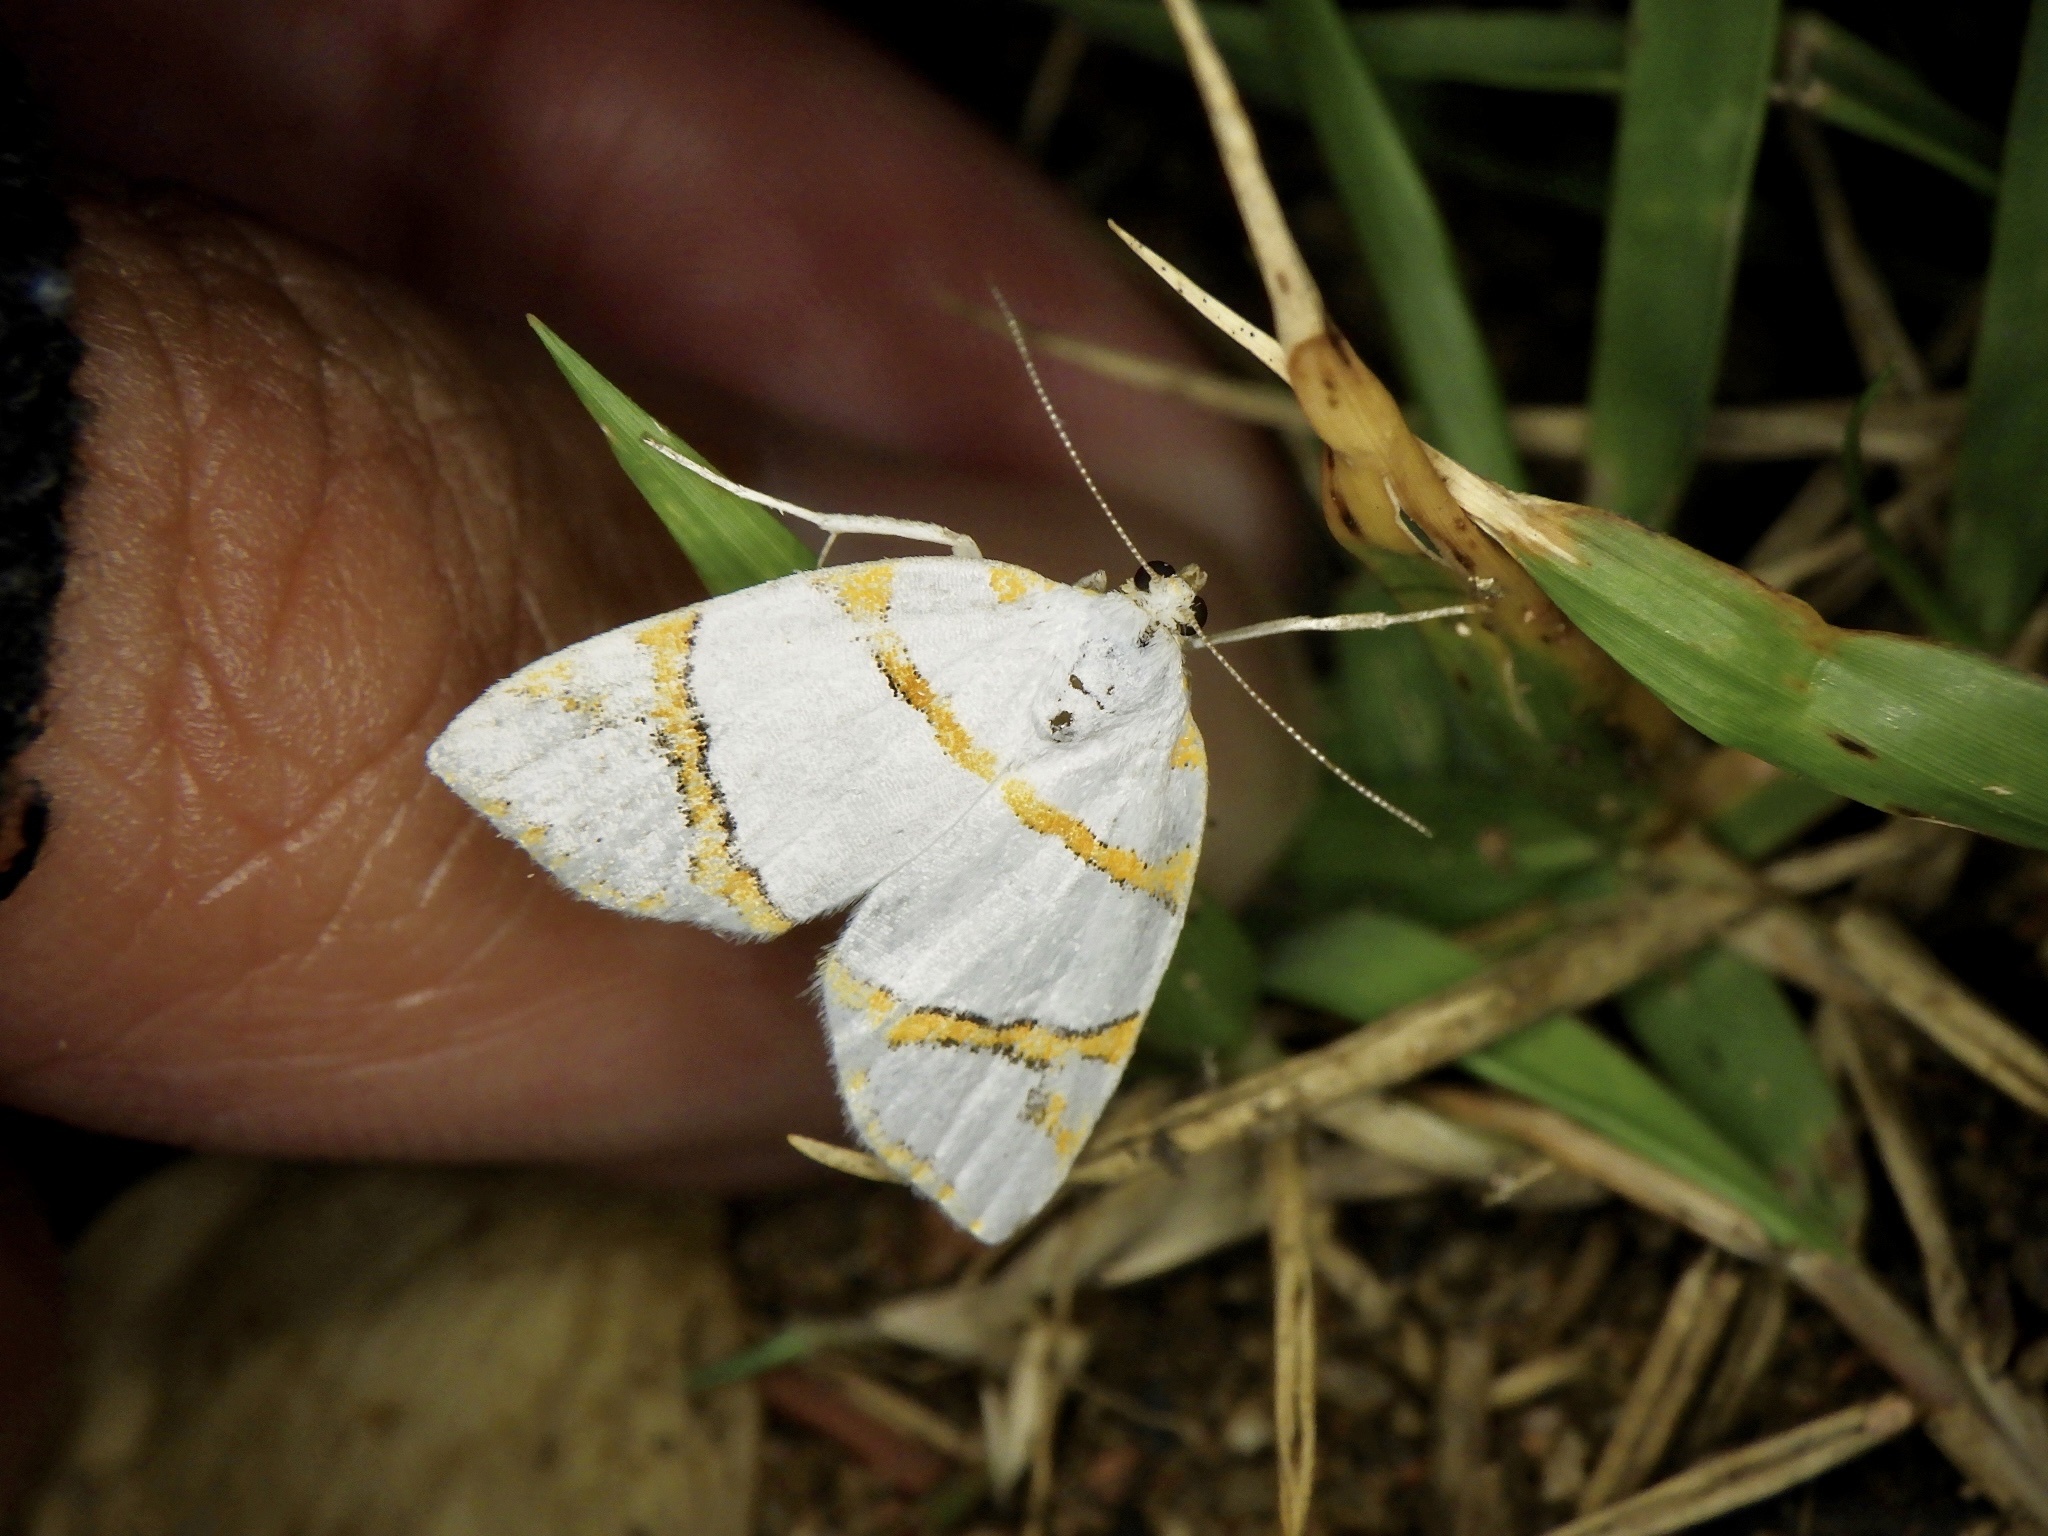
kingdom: Animalia
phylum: Arthropoda
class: Insecta
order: Lepidoptera
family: Nolidae
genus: Ariolica
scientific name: Ariolica argentea
